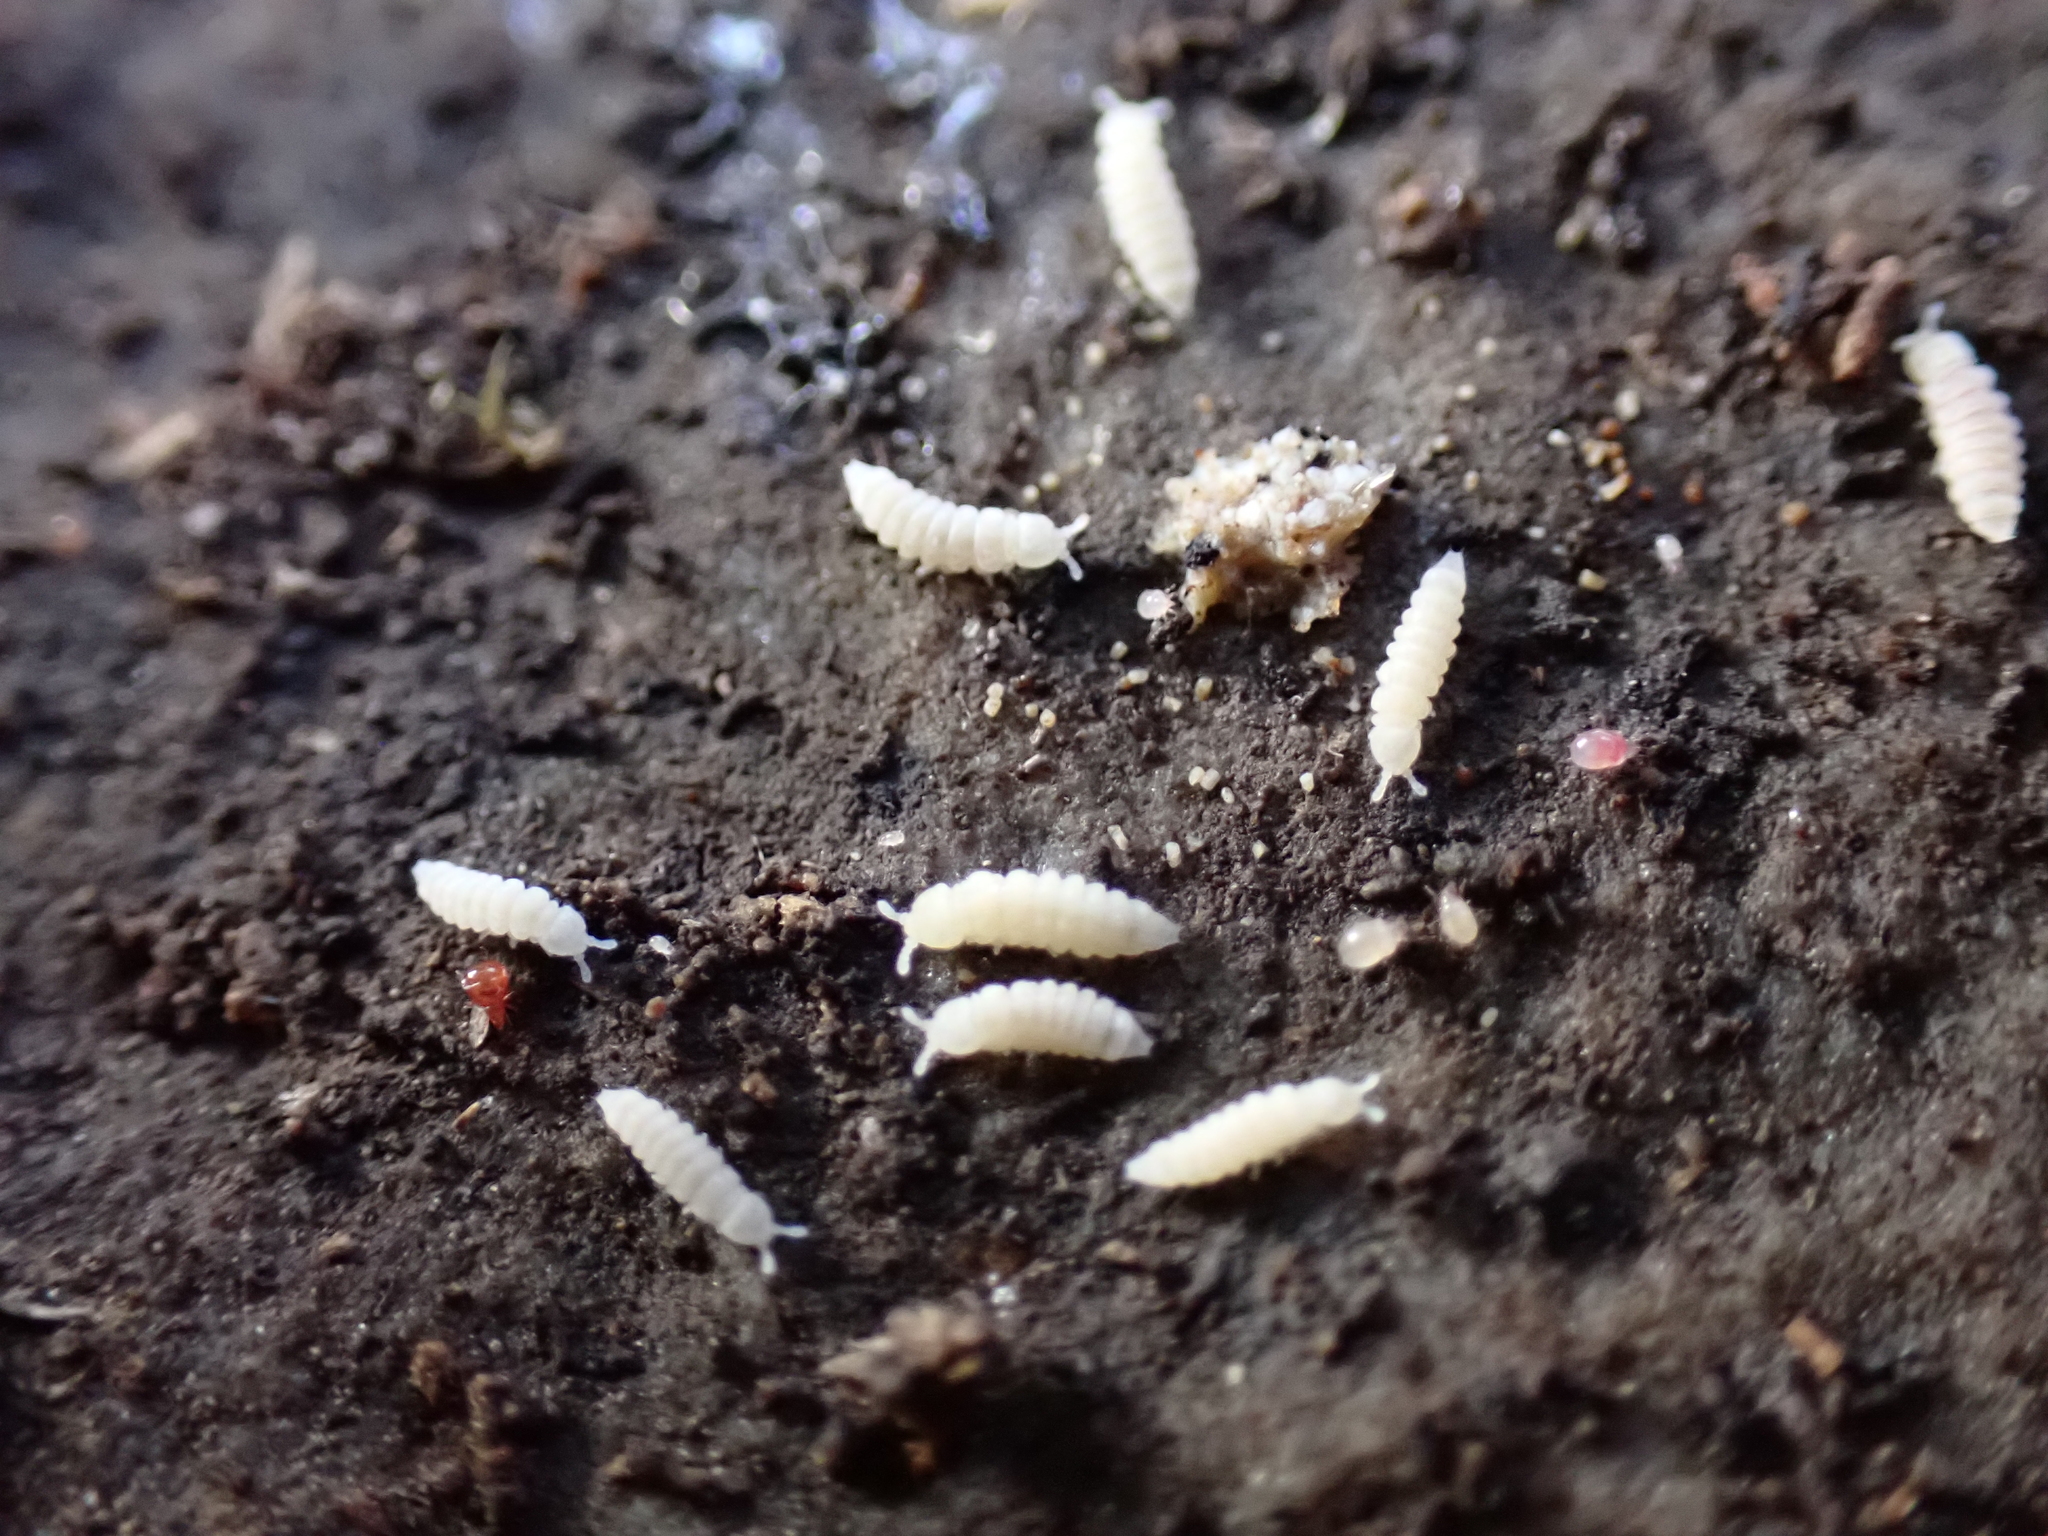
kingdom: Animalia
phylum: Arthropoda
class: Collembola
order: Poduromorpha
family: Onychiuridae
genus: Kalaphorura
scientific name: Kalaphorura burmeisteri
